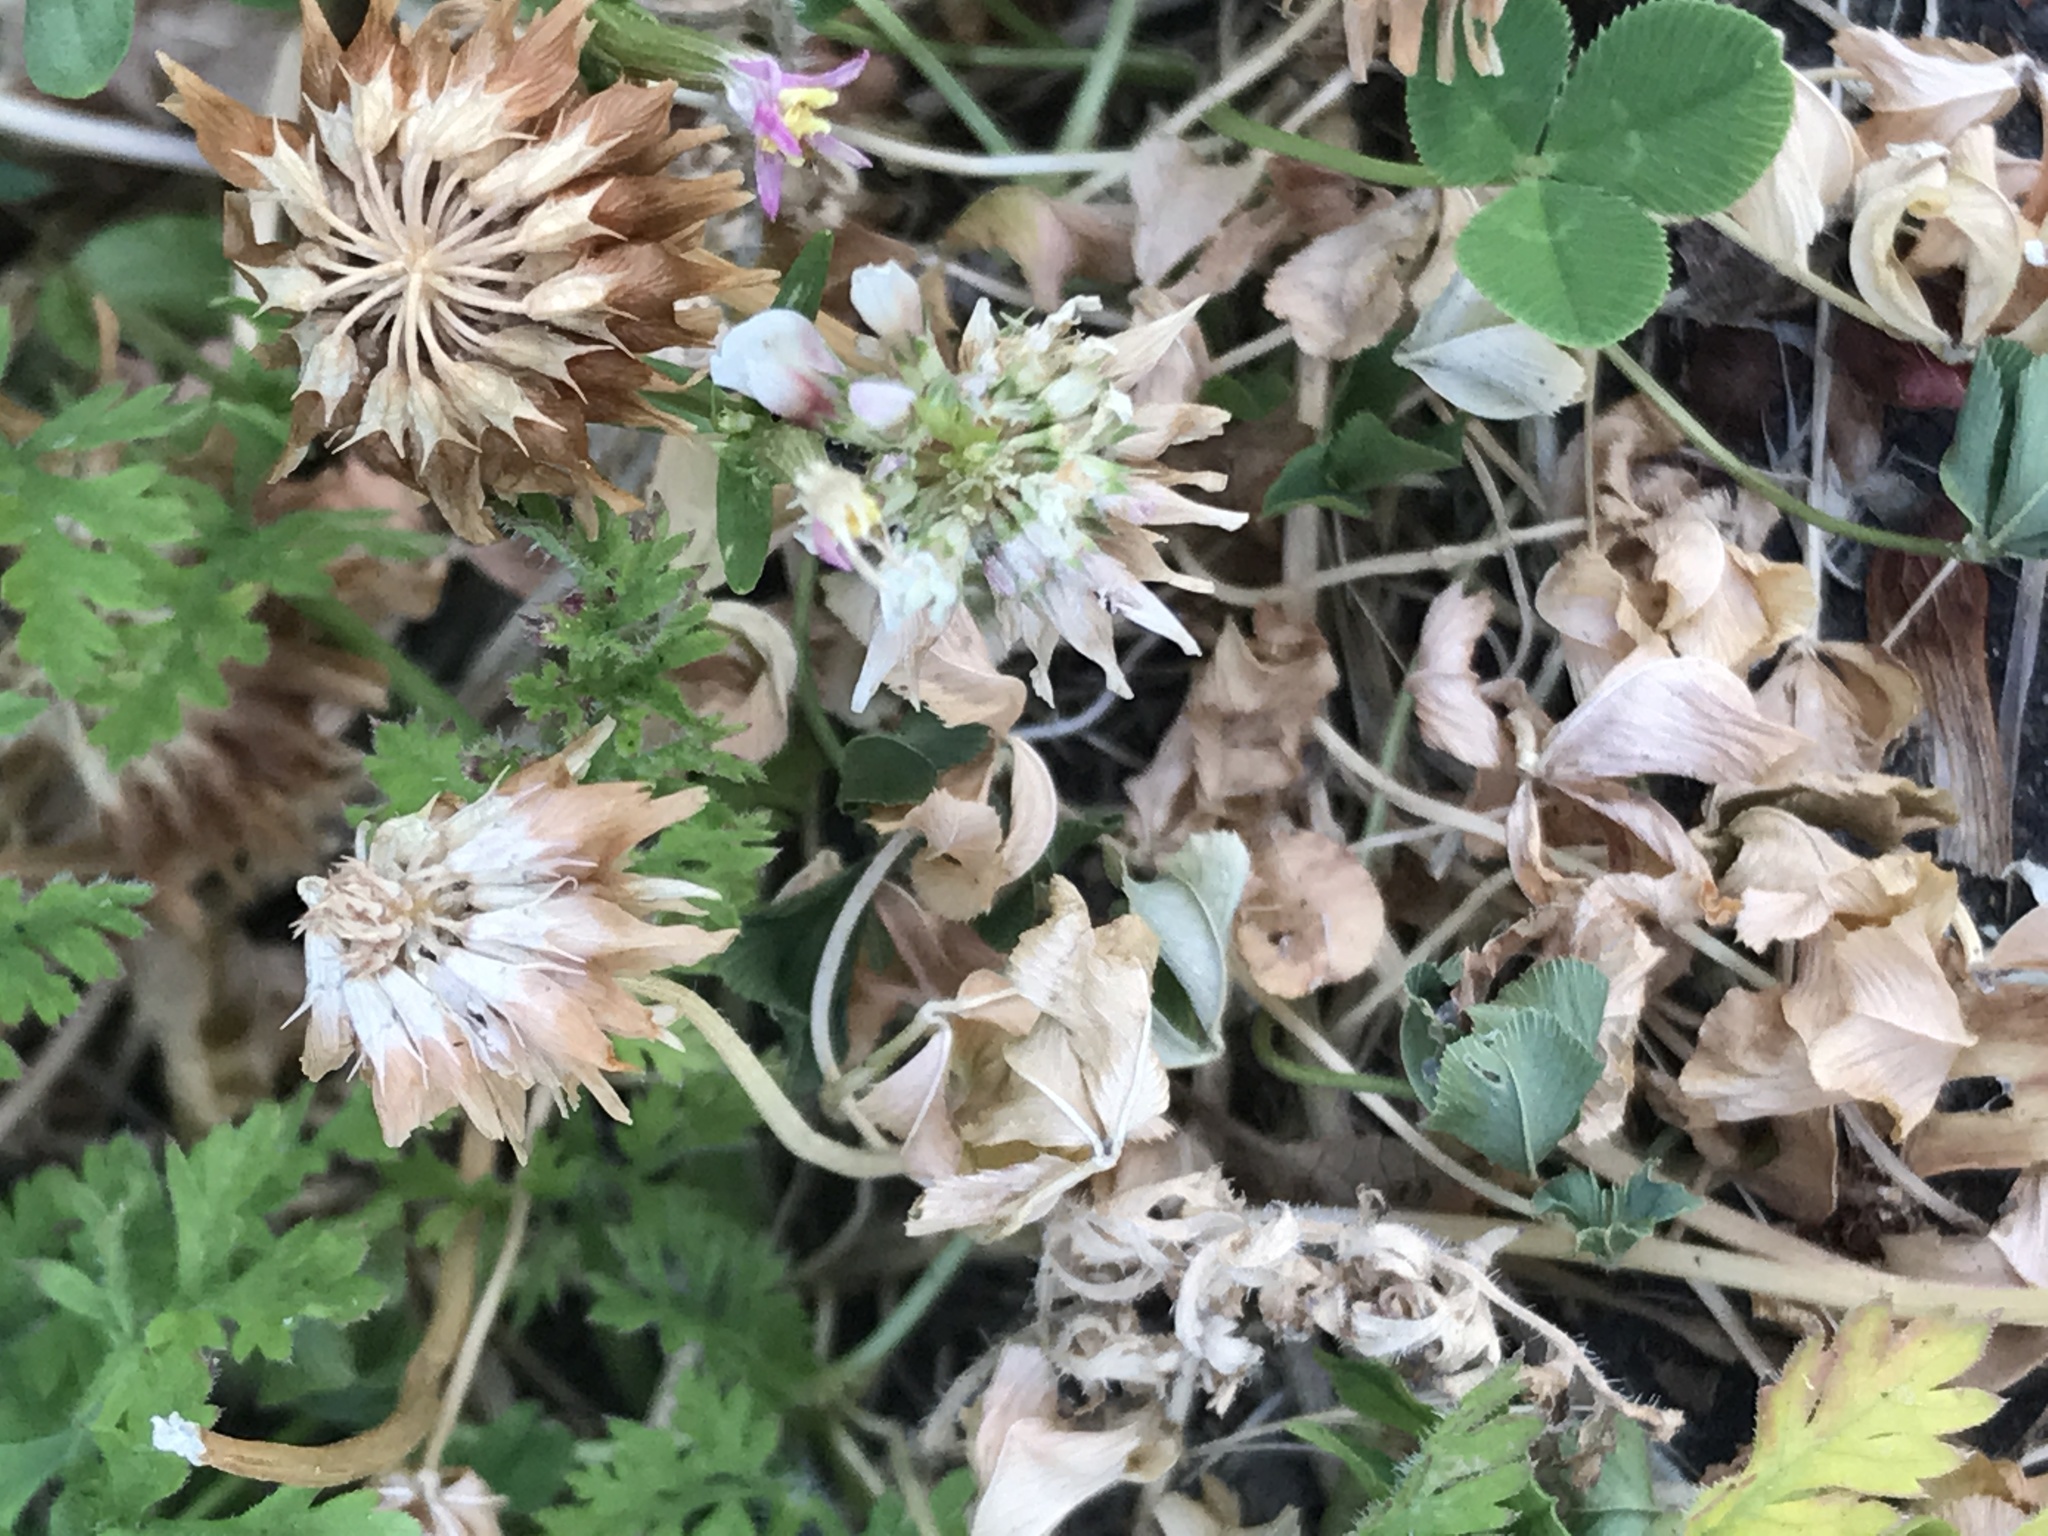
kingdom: Plantae
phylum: Tracheophyta
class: Magnoliopsida
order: Fabales
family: Fabaceae
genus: Trifolium
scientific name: Trifolium repens
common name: White clover
